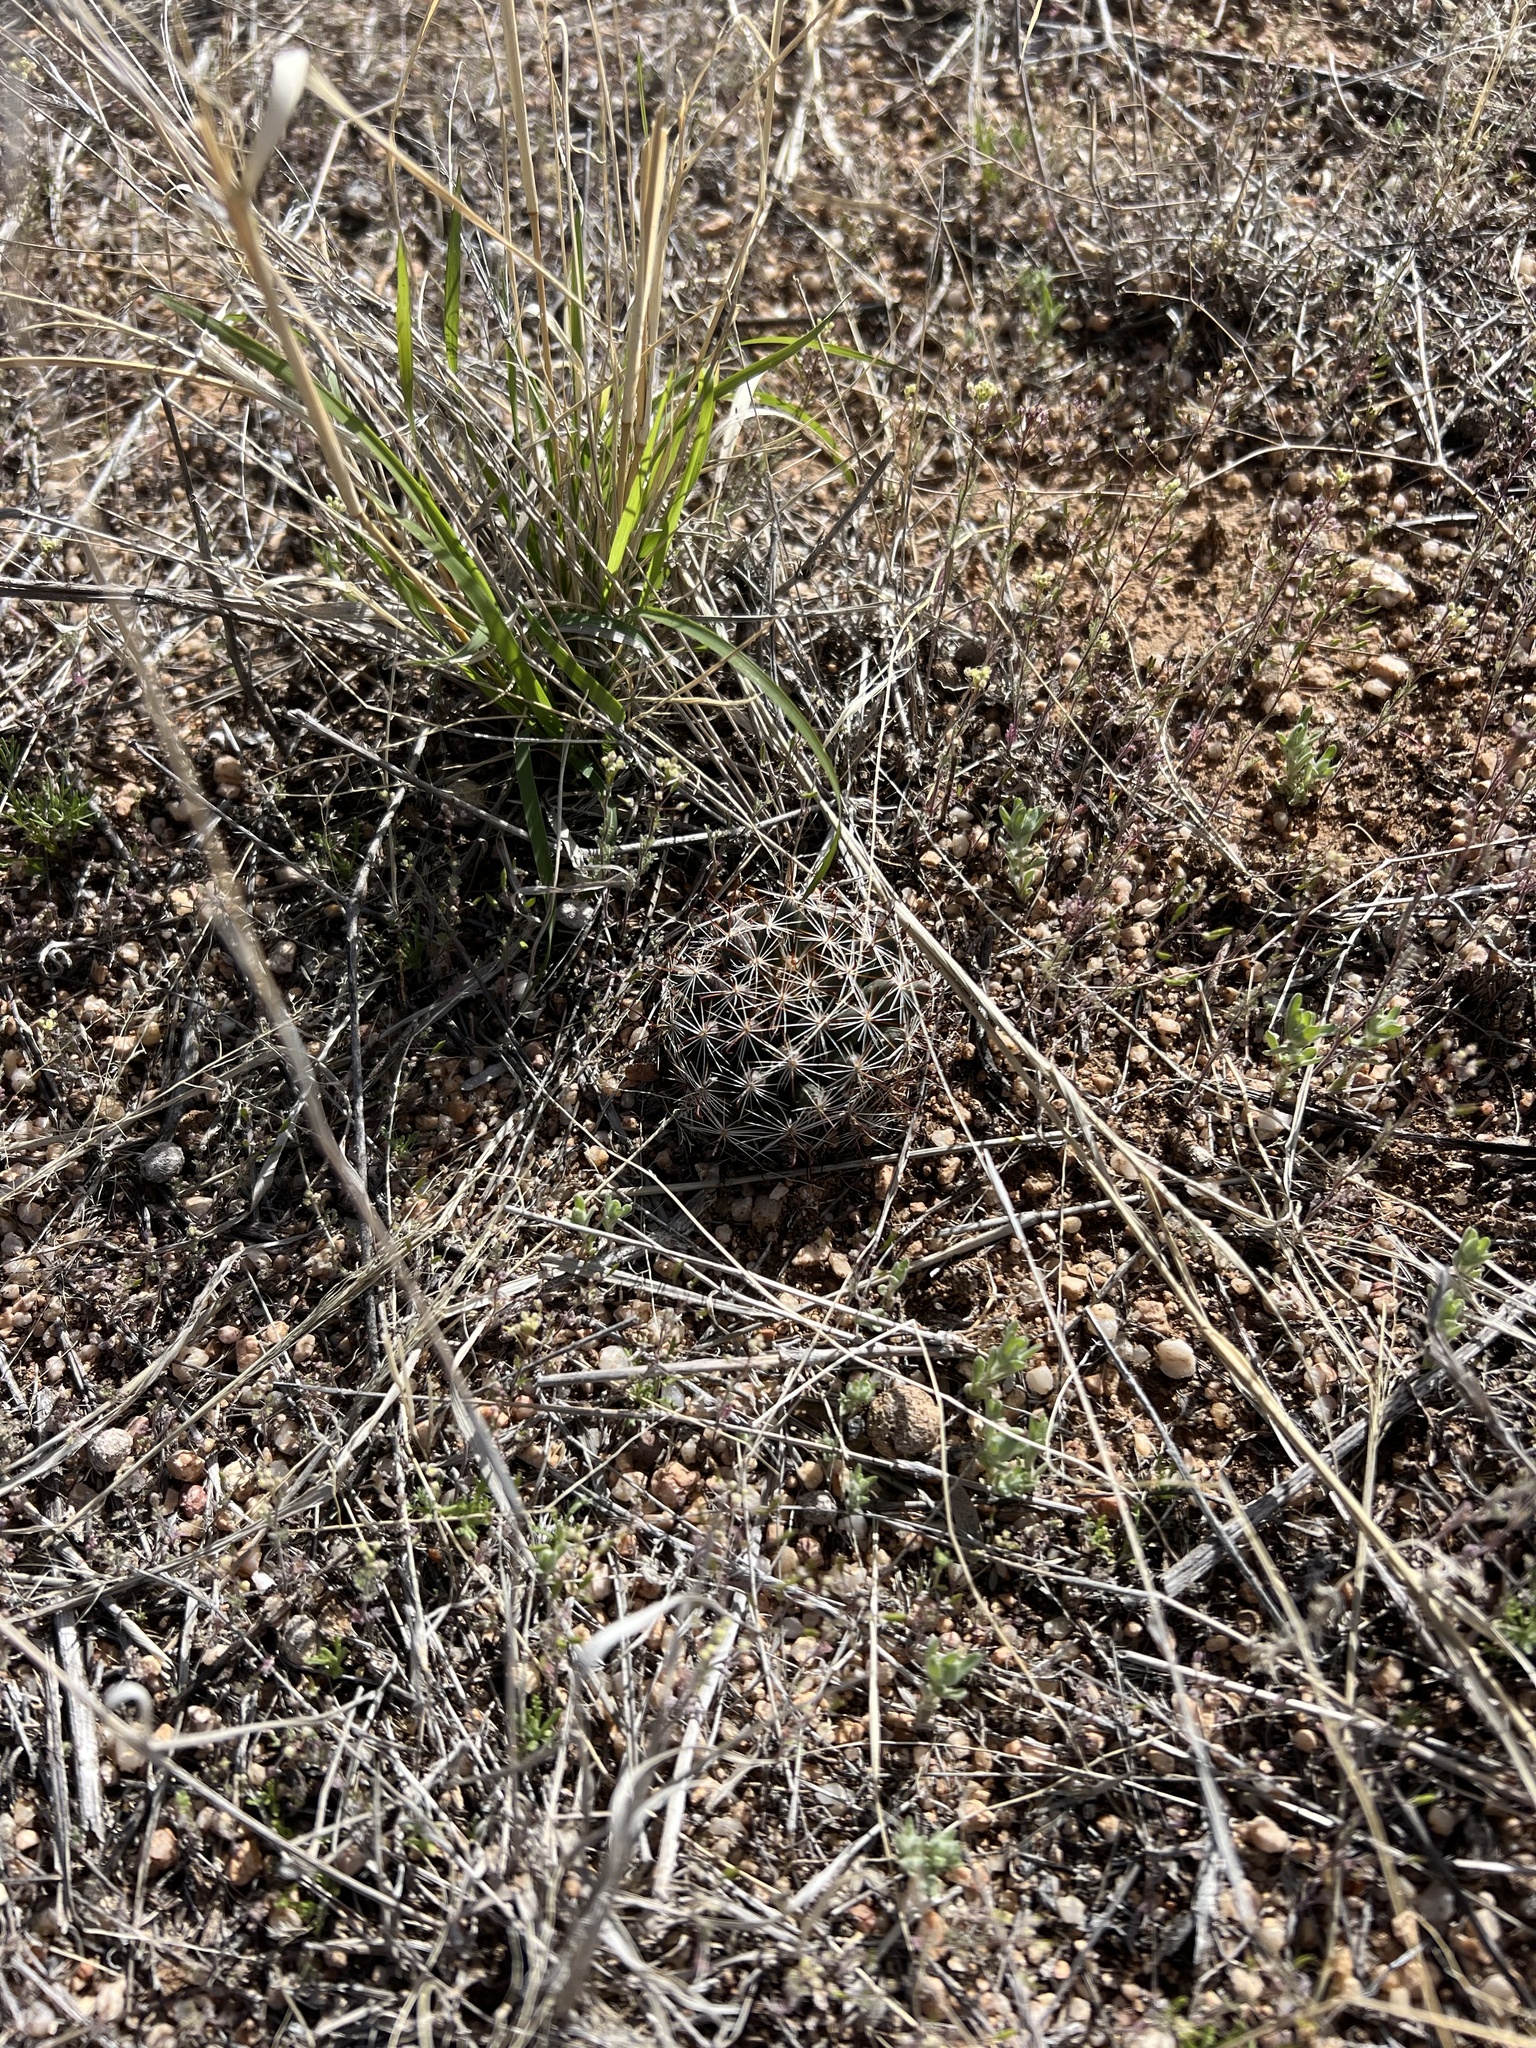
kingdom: Plantae
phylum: Tracheophyta
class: Magnoliopsida
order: Caryophyllales
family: Cactaceae
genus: Cochemiea
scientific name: Cochemiea wrightii
